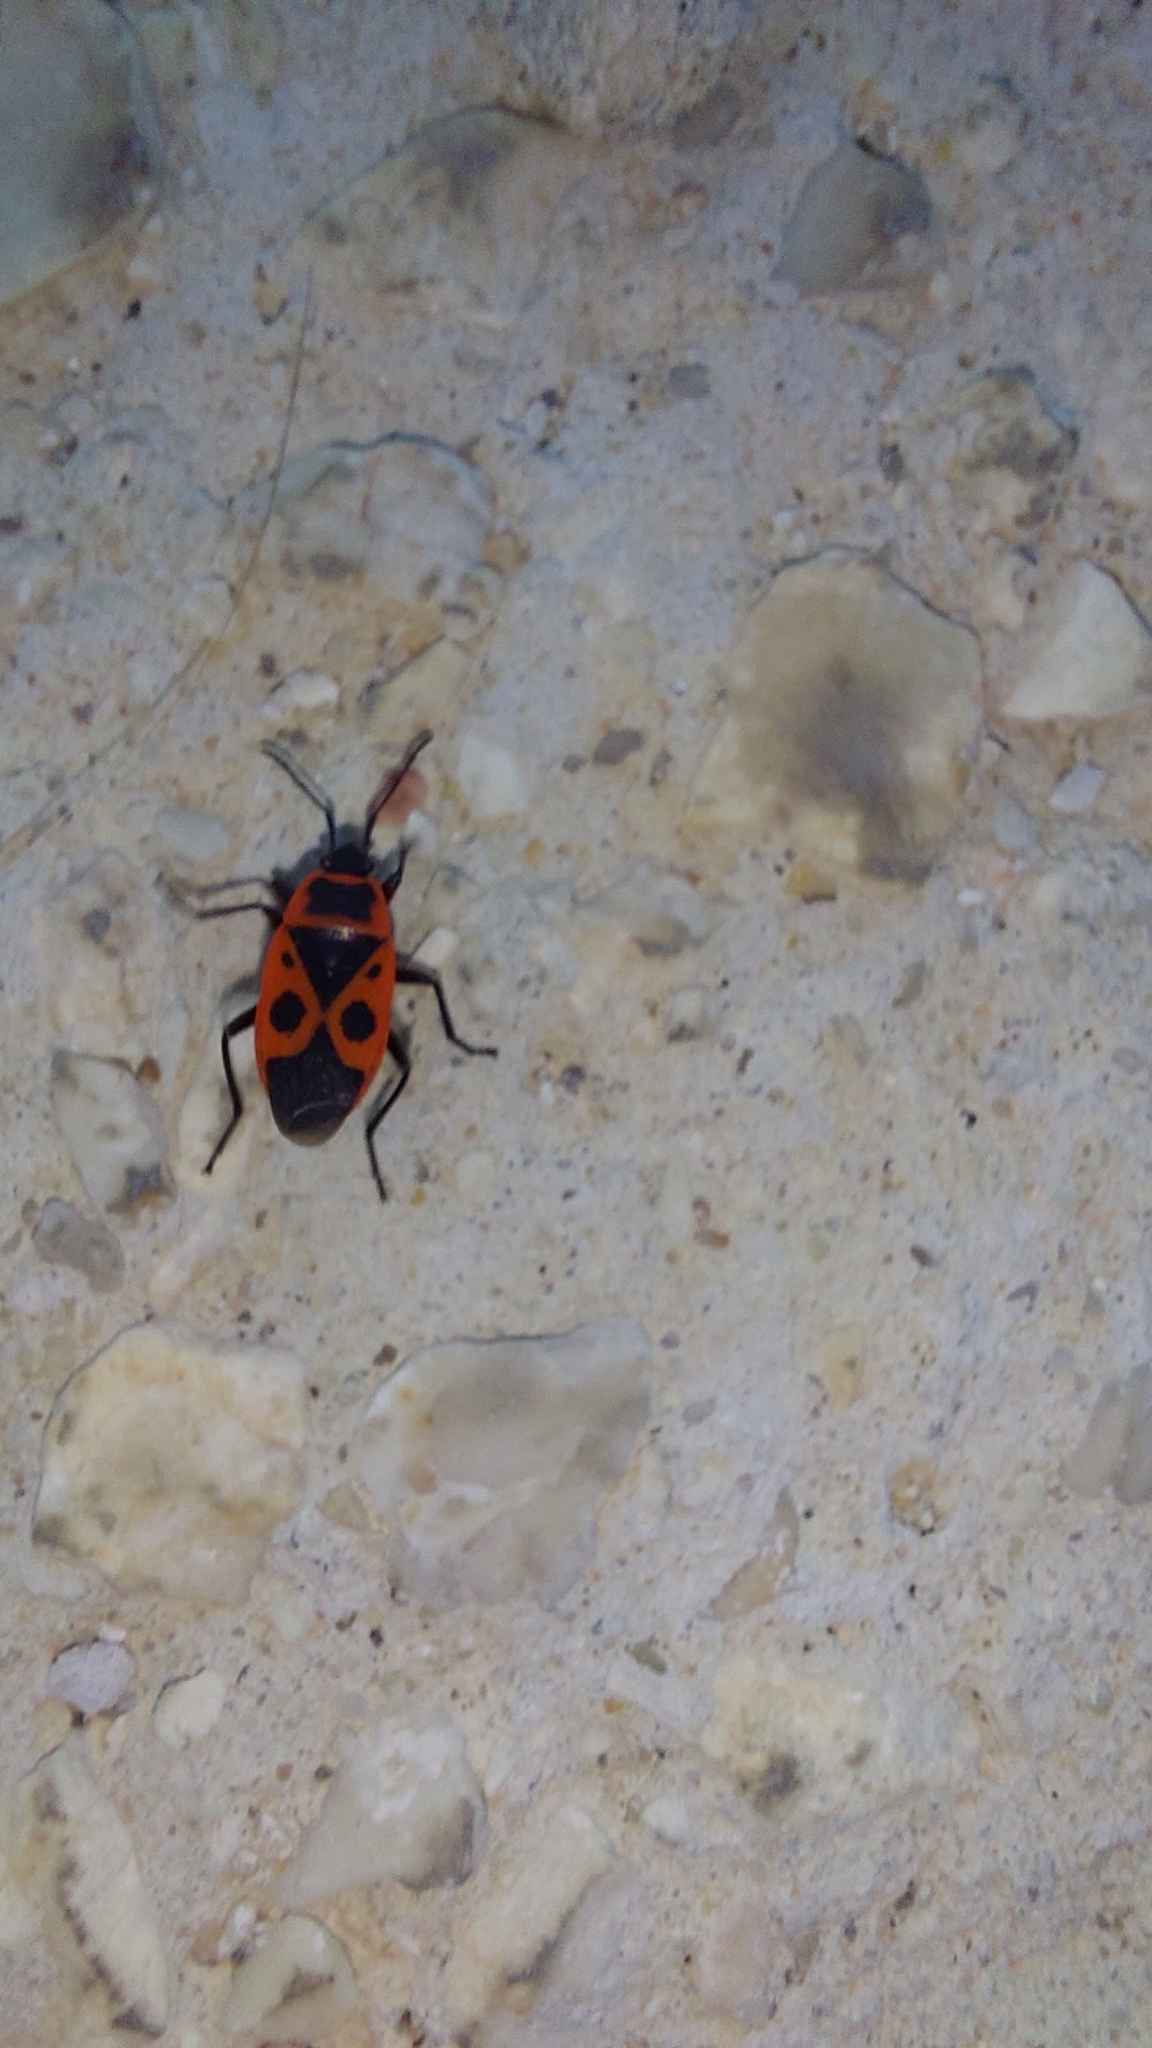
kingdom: Animalia
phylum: Arthropoda
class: Insecta
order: Hemiptera
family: Pyrrhocoridae
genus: Pyrrhocoris
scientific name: Pyrrhocoris apterus
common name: Firebug
